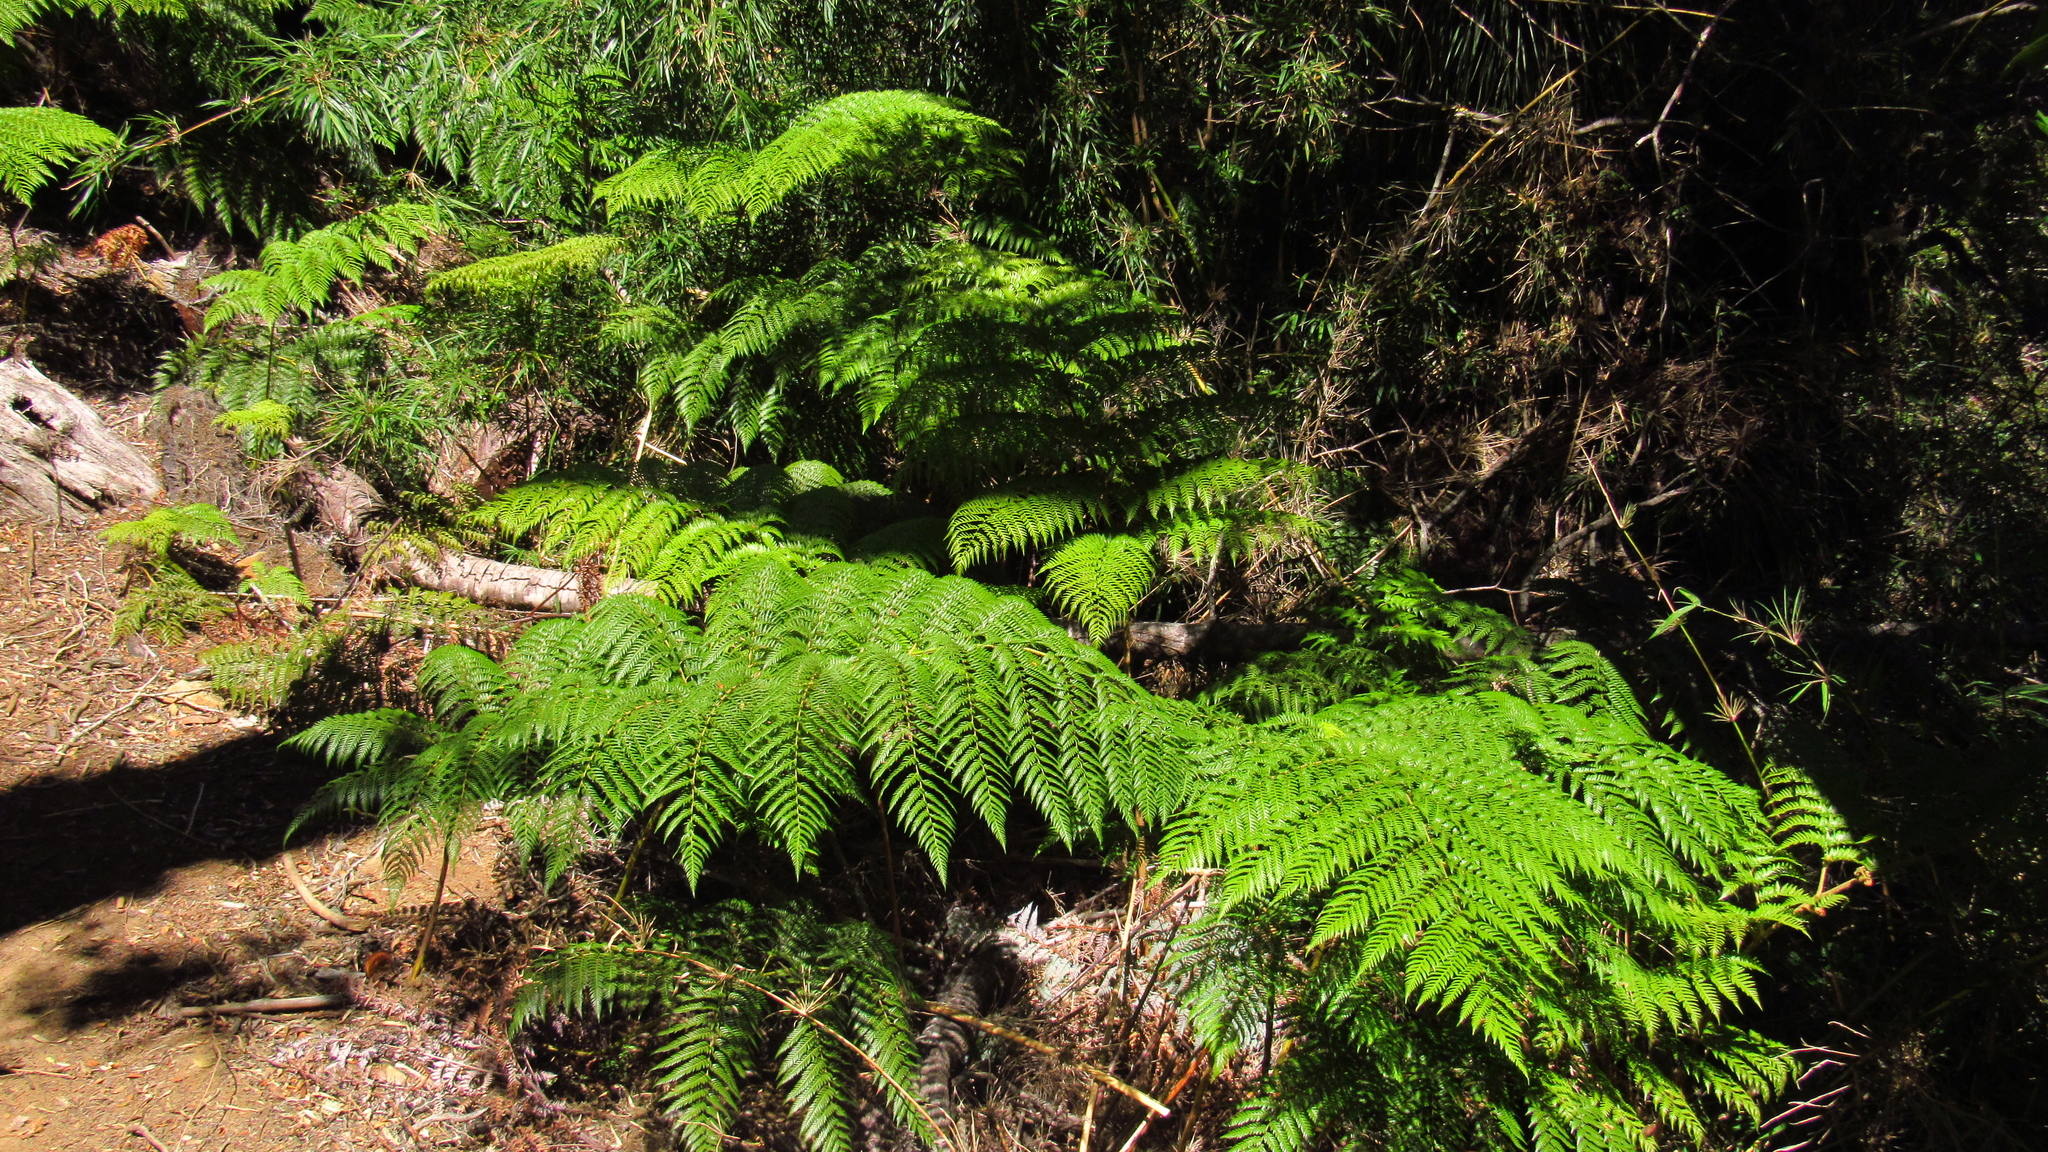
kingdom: Plantae
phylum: Tracheophyta
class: Polypodiopsida
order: Cyatheales
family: Dicksoniaceae
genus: Lophosoria
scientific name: Lophosoria quadripinnata
